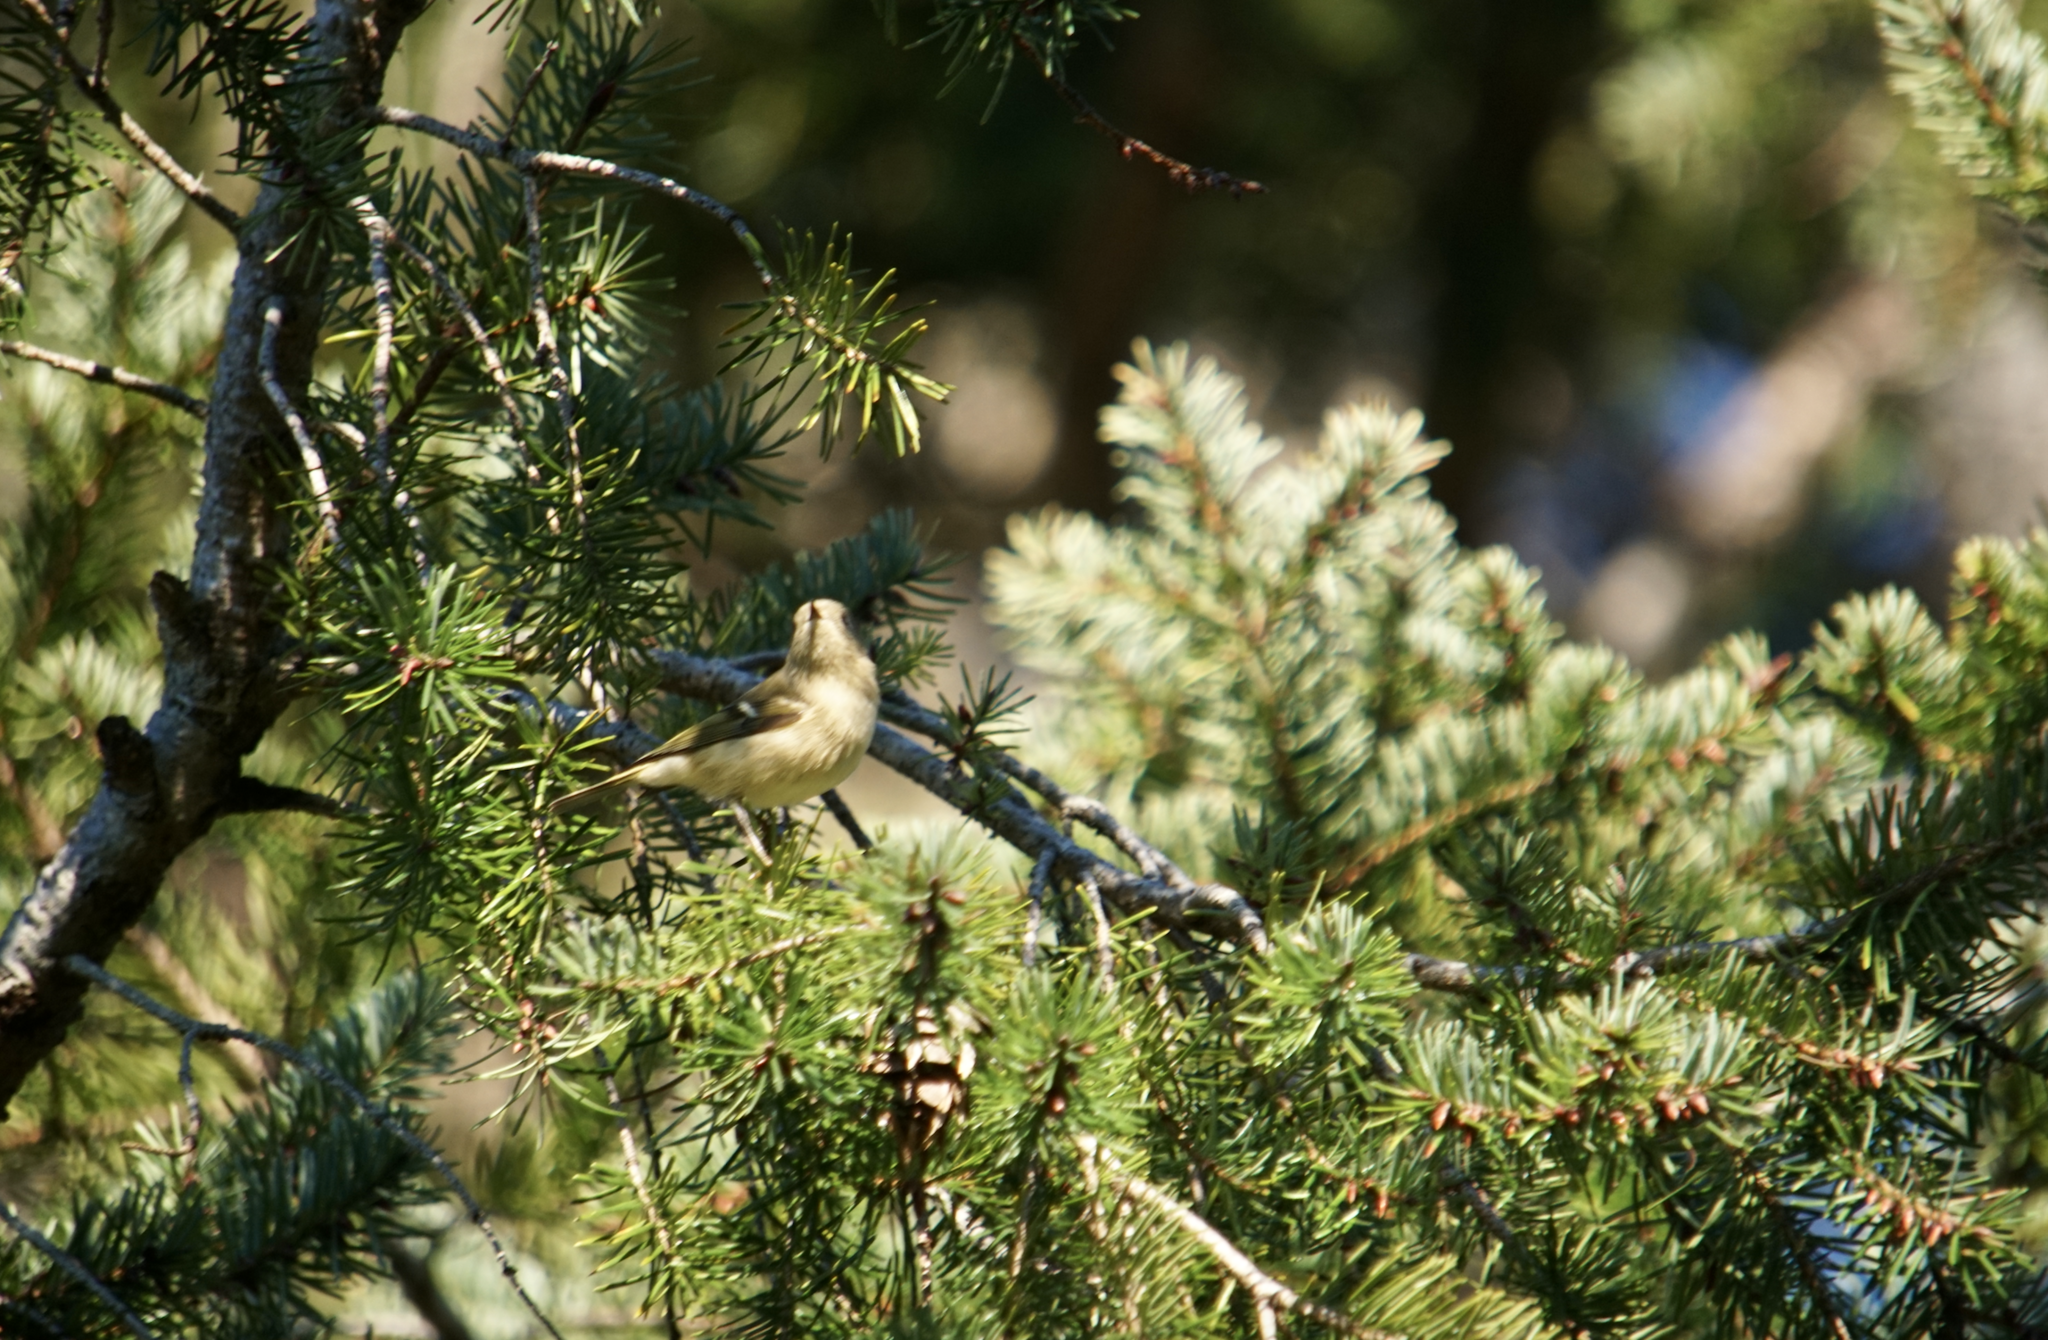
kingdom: Animalia
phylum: Chordata
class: Aves
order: Passeriformes
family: Regulidae
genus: Regulus
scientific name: Regulus calendula
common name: Ruby-crowned kinglet
